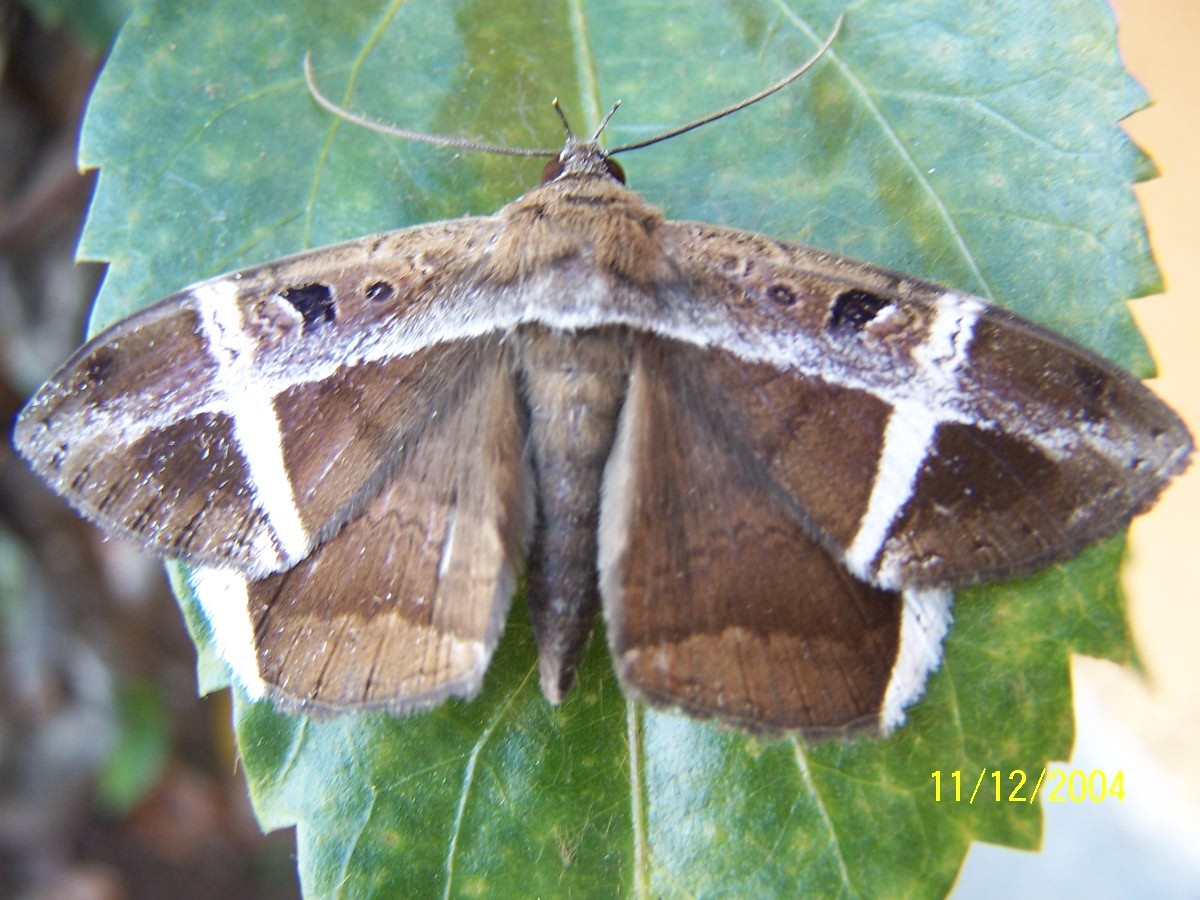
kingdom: Animalia
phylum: Arthropoda
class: Insecta
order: Lepidoptera
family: Erebidae
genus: Hemeroblemma
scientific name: Hemeroblemma mexicana
